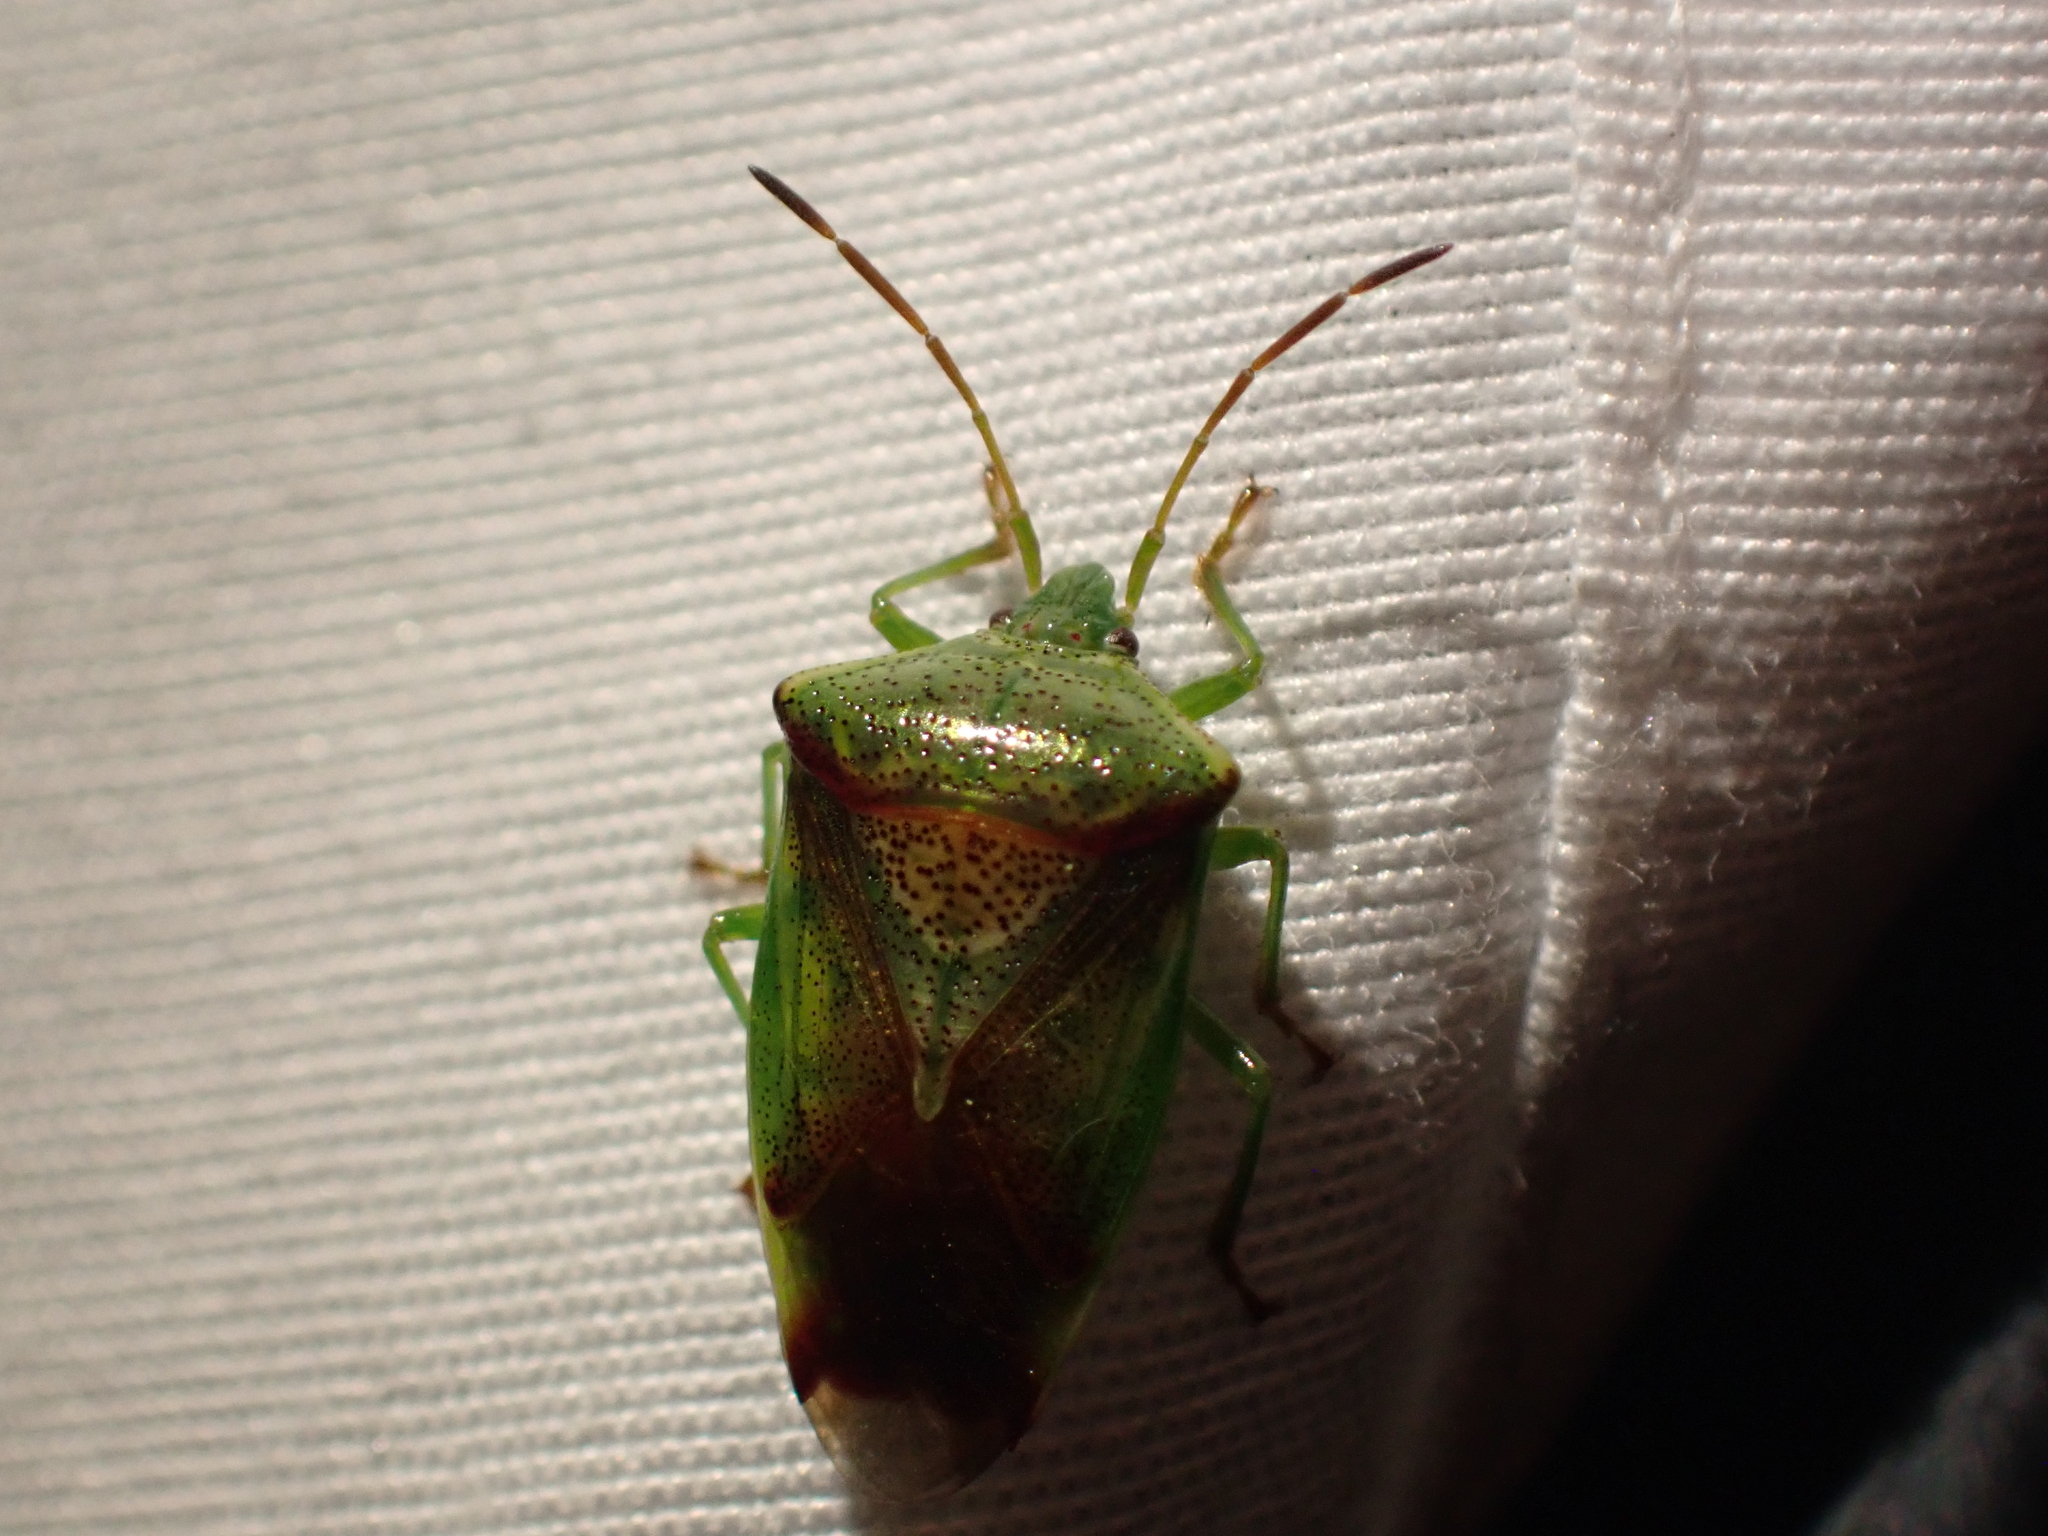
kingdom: Animalia
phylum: Arthropoda
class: Insecta
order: Hemiptera
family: Acanthosomatidae
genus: Elasmostethus
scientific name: Elasmostethus cruciatus
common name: Red-cross shield bug
